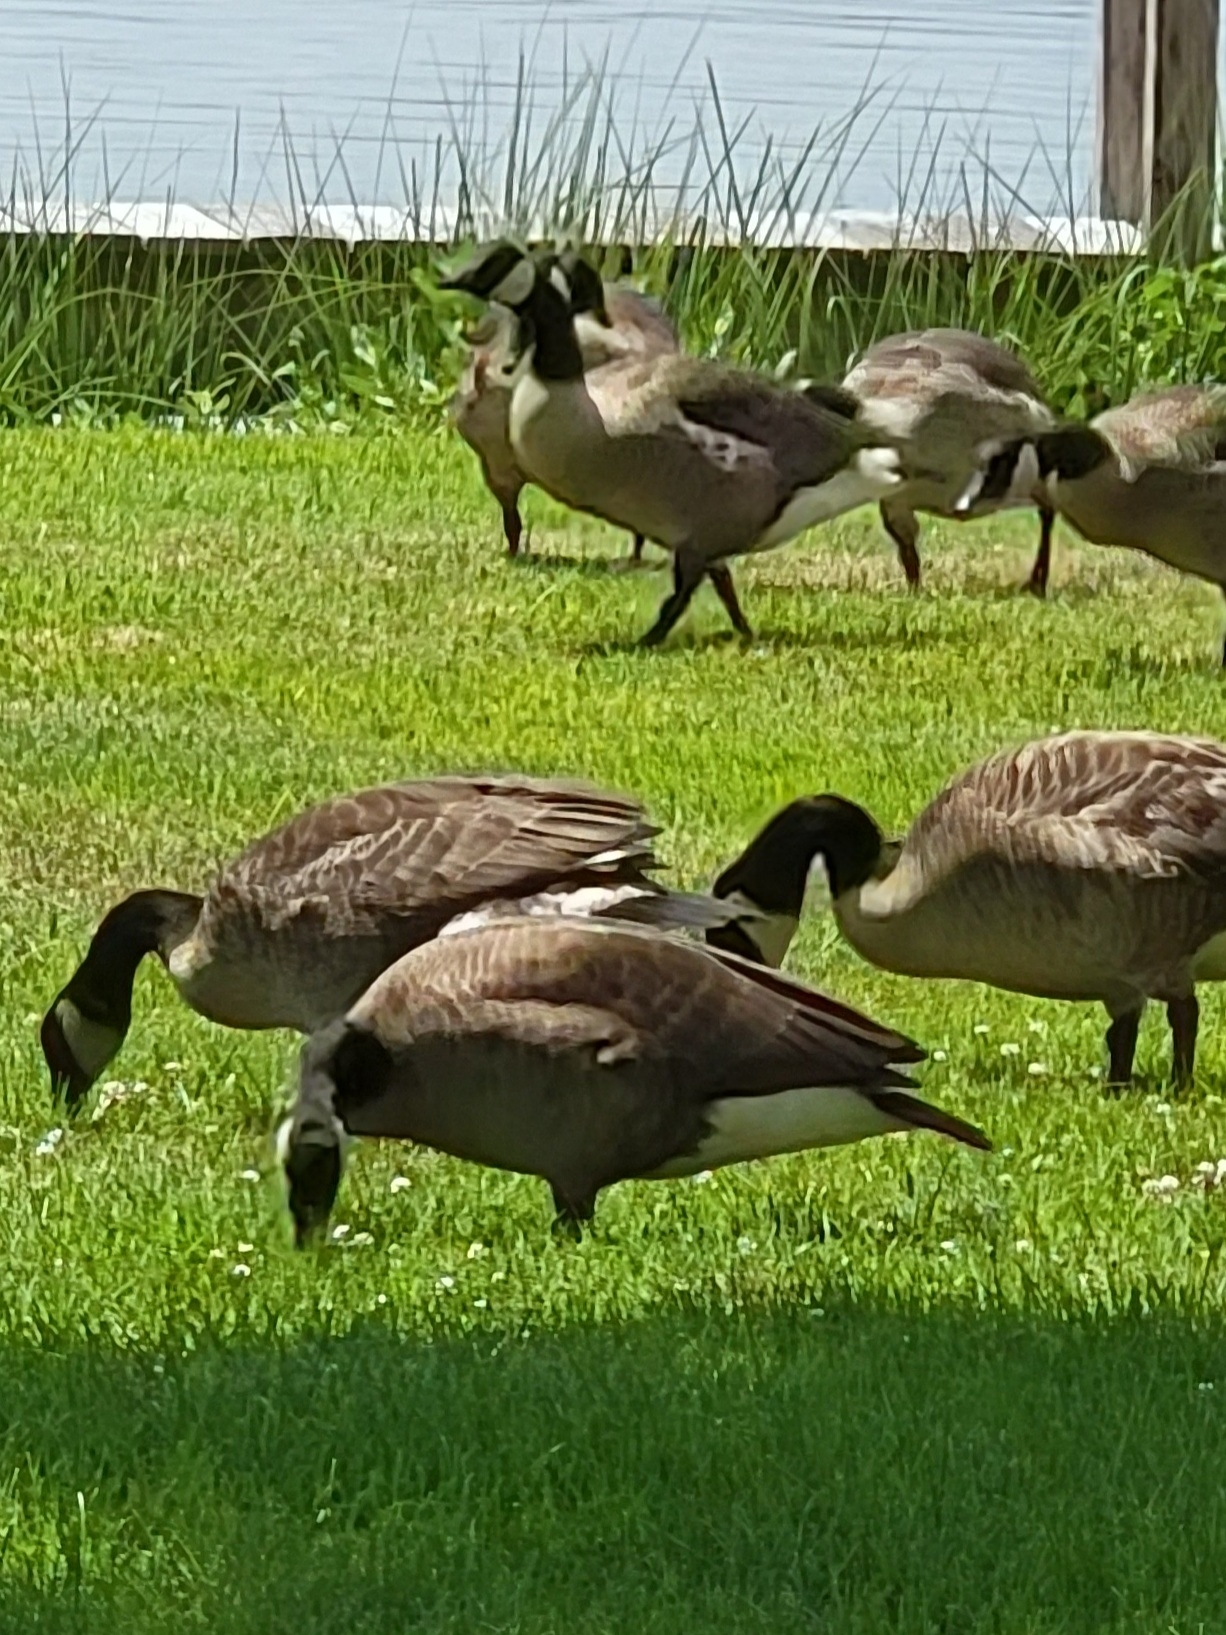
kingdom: Animalia
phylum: Chordata
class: Aves
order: Anseriformes
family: Anatidae
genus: Branta
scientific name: Branta canadensis
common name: Canada goose
